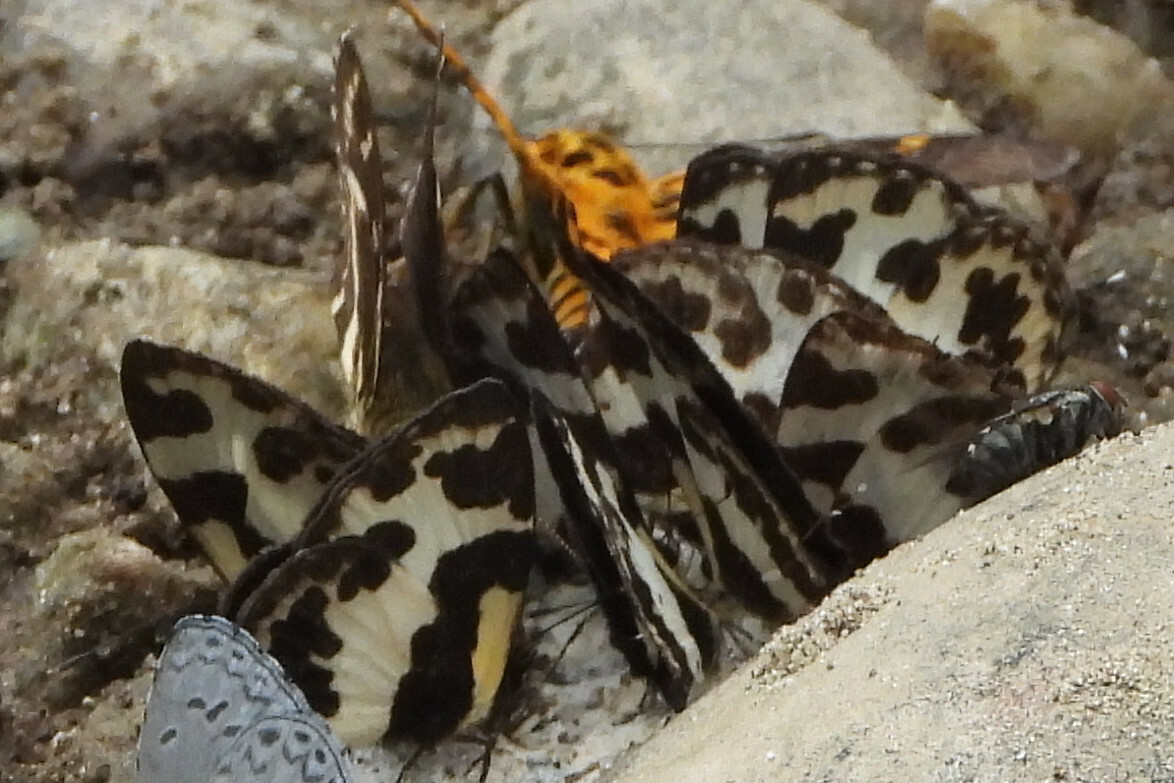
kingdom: Animalia
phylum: Arthropoda
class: Insecta
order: Lepidoptera
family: Lycaenidae
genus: Caleta
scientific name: Caleta elna
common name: Elbowed pierrot
